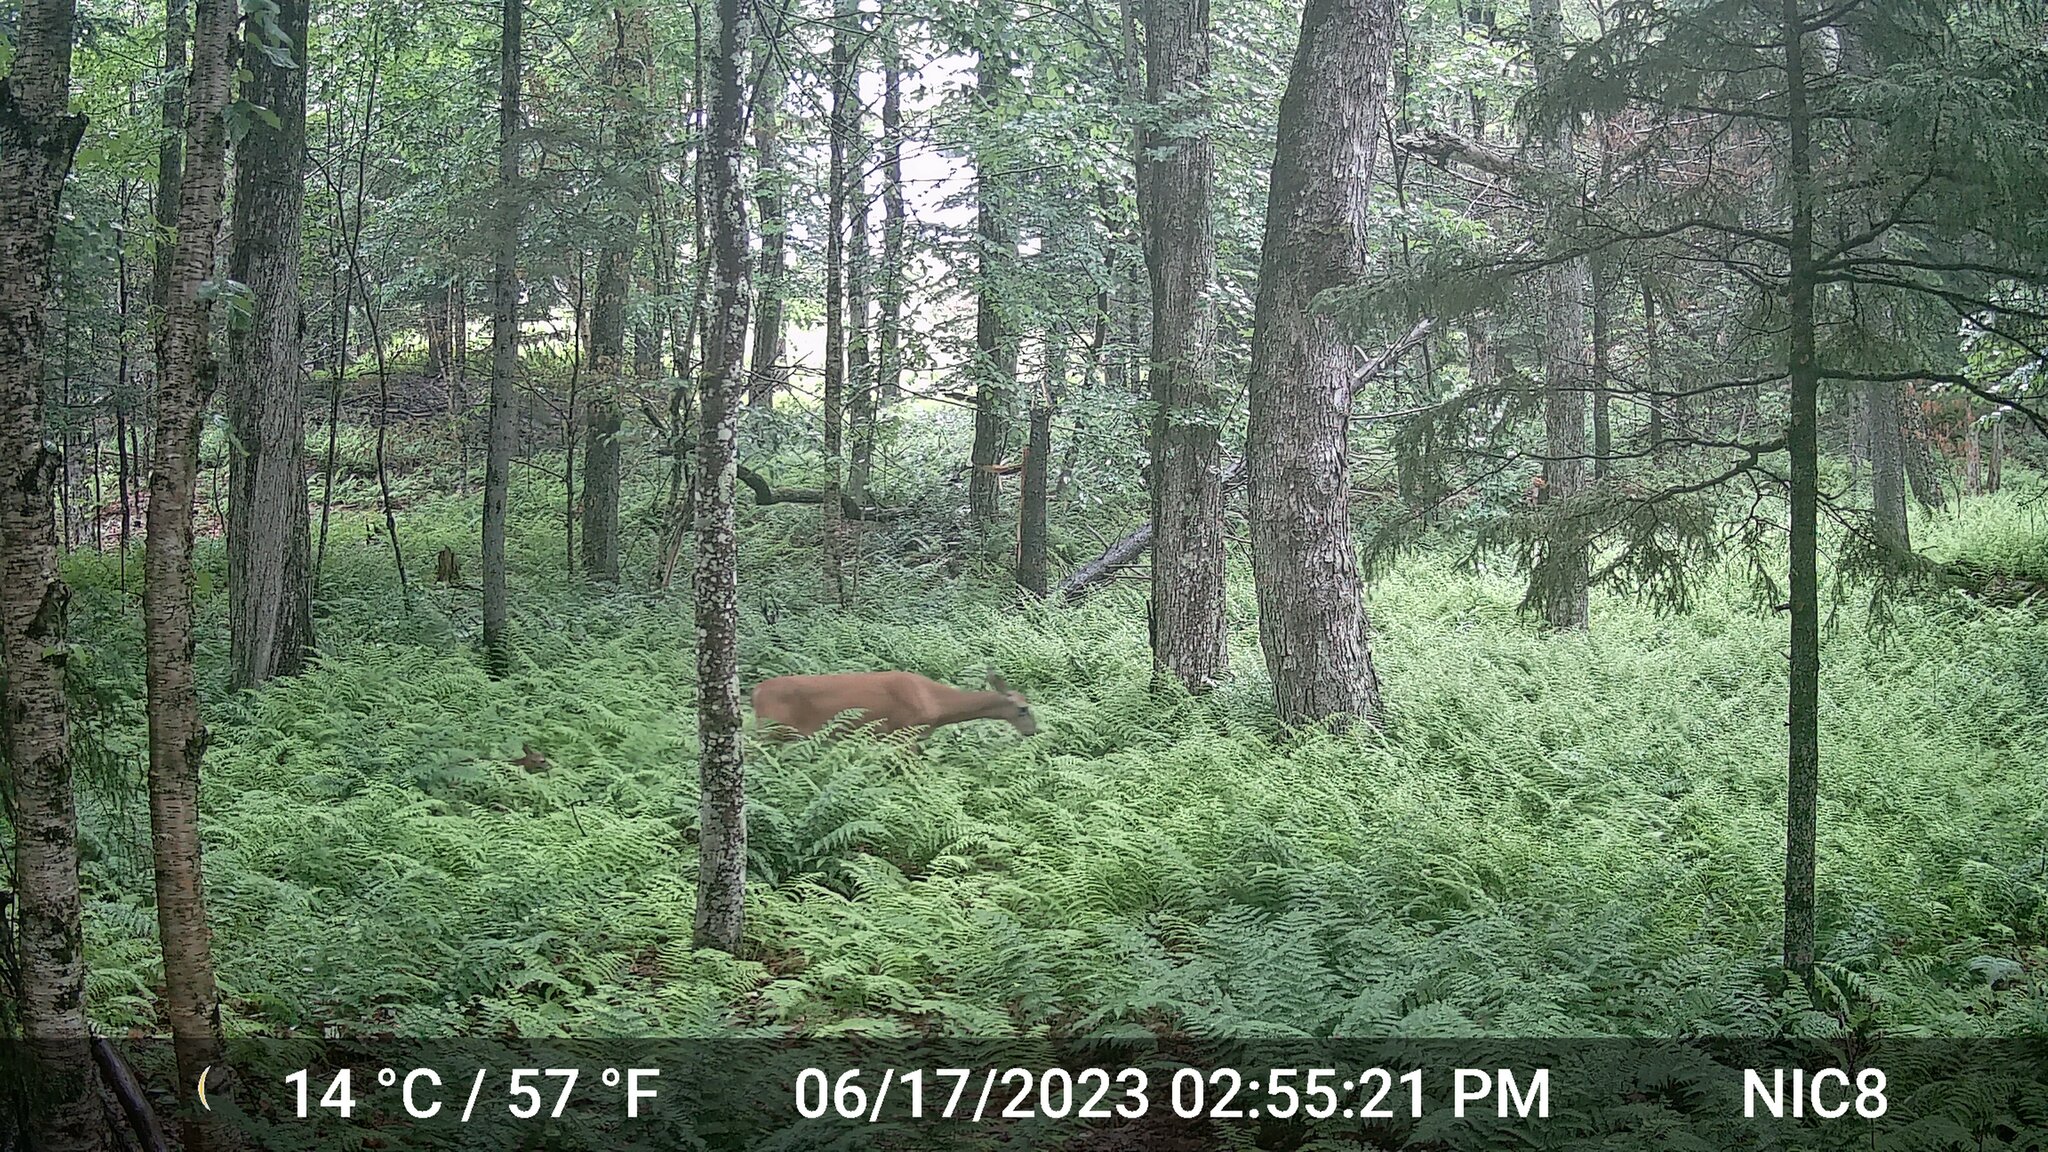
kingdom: Animalia
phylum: Chordata
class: Mammalia
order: Artiodactyla
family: Cervidae
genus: Odocoileus
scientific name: Odocoileus virginianus
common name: White-tailed deer
